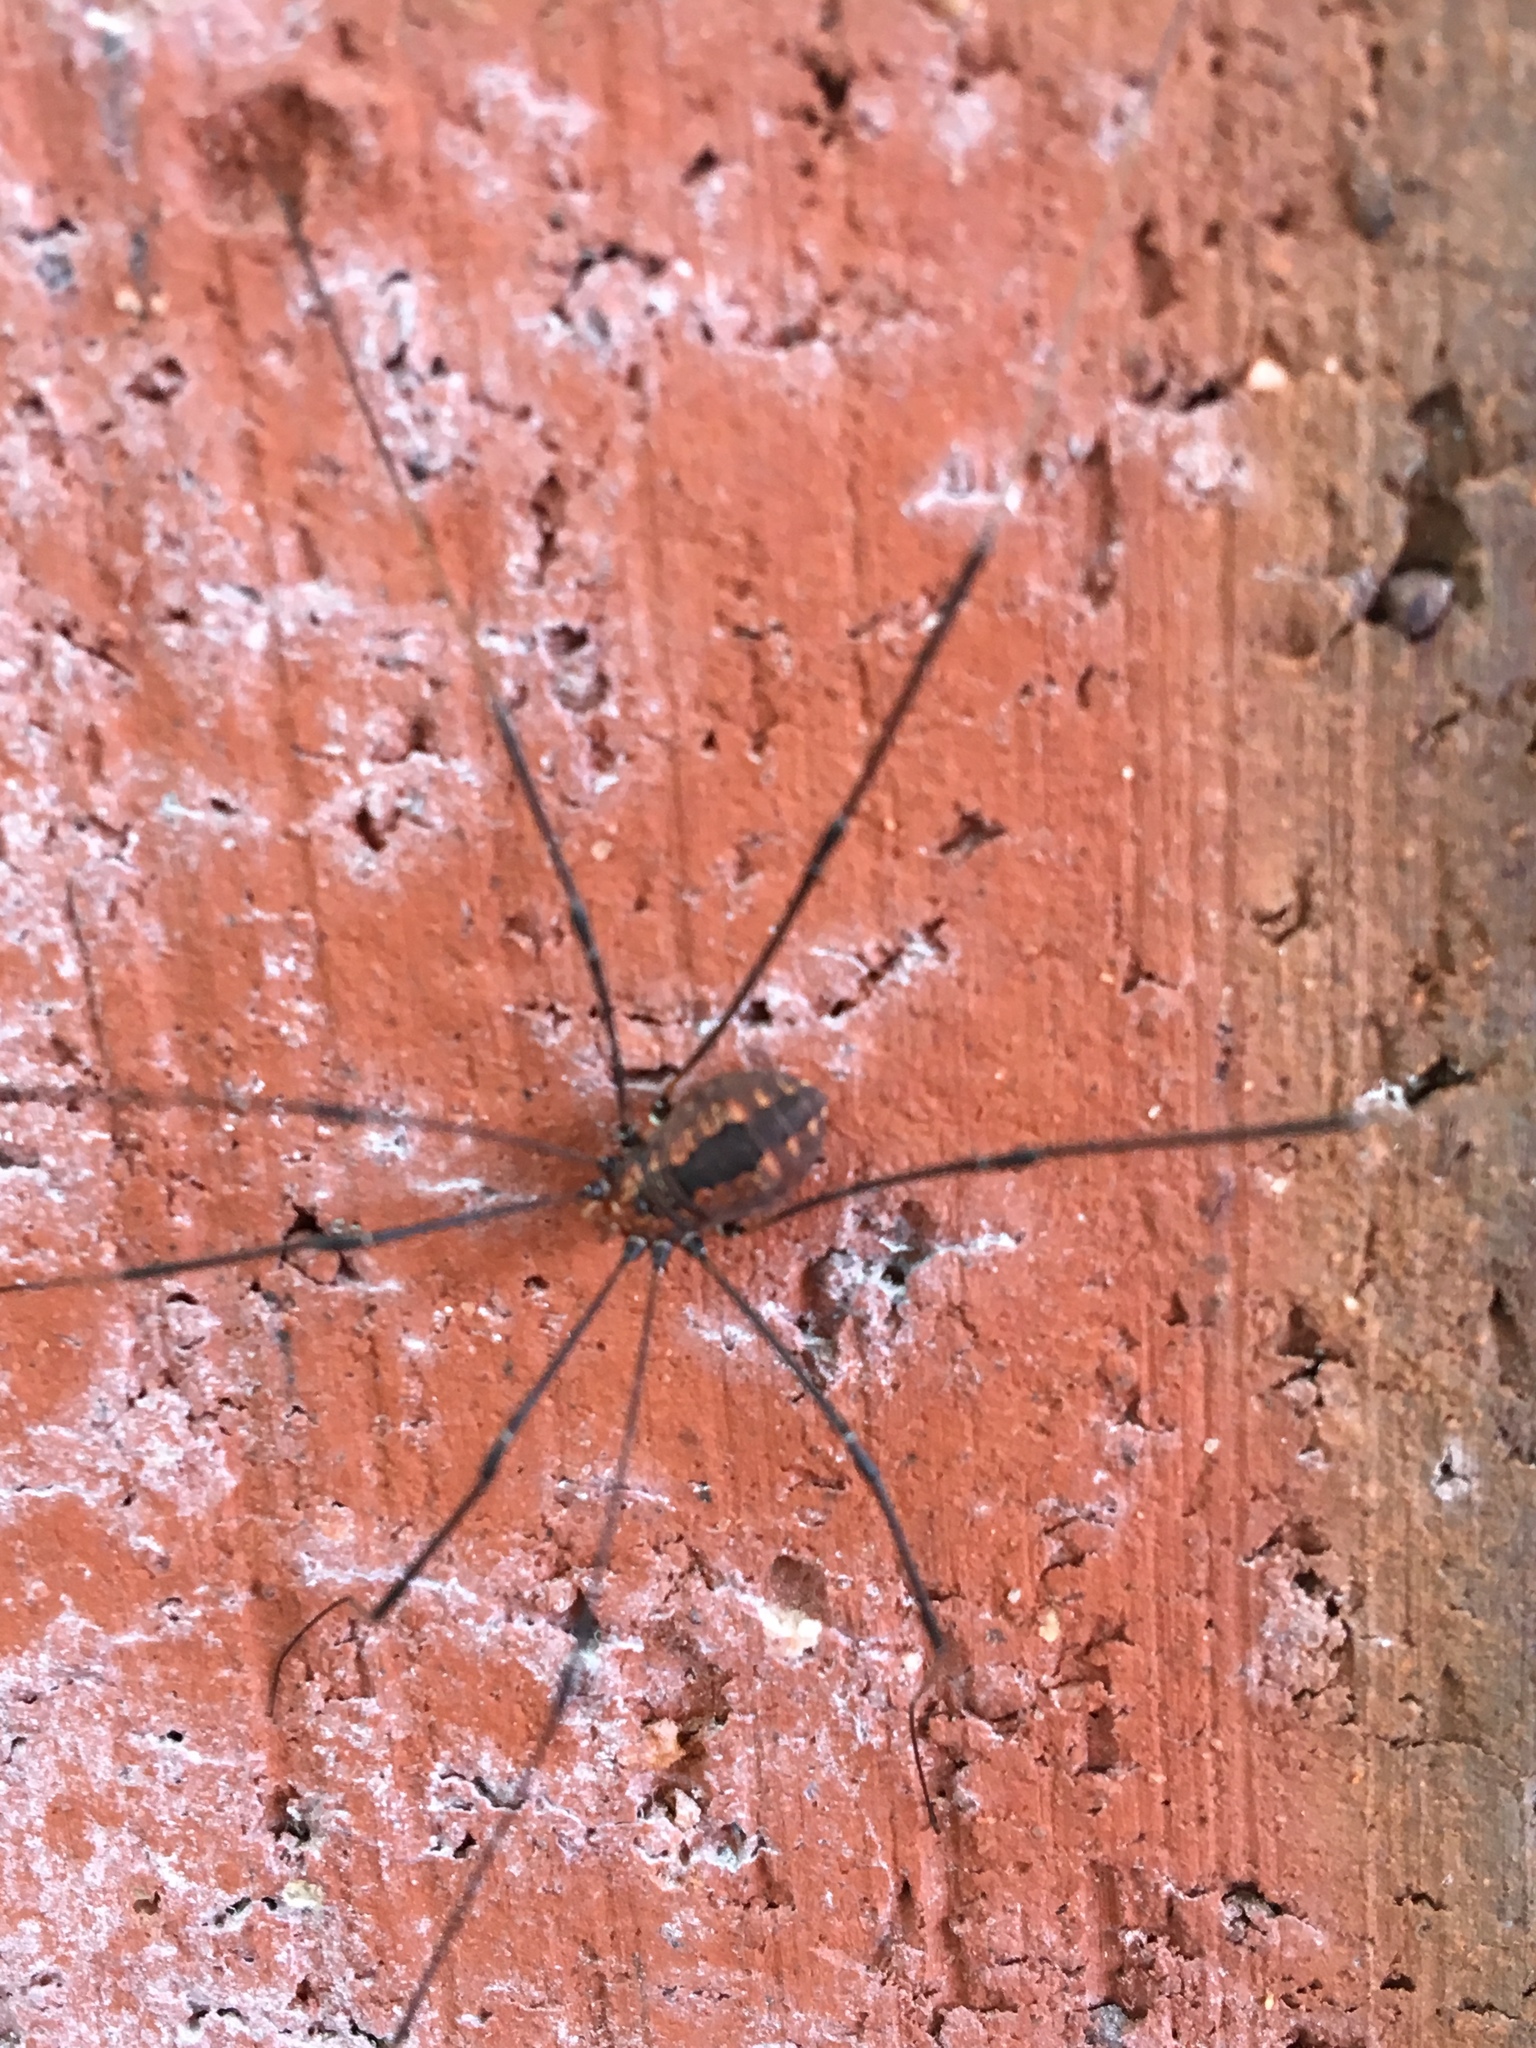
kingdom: Animalia
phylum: Arthropoda
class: Arachnida
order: Opiliones
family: Sclerosomatidae
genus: Leiobunum
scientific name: Leiobunum vittatum
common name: Eastern harvestman
